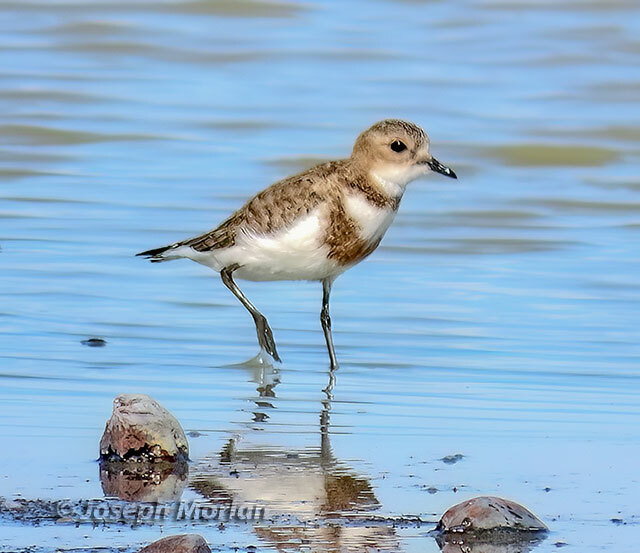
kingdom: Animalia
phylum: Chordata
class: Aves
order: Charadriiformes
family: Charadriidae
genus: Anarhynchus
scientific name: Anarhynchus
